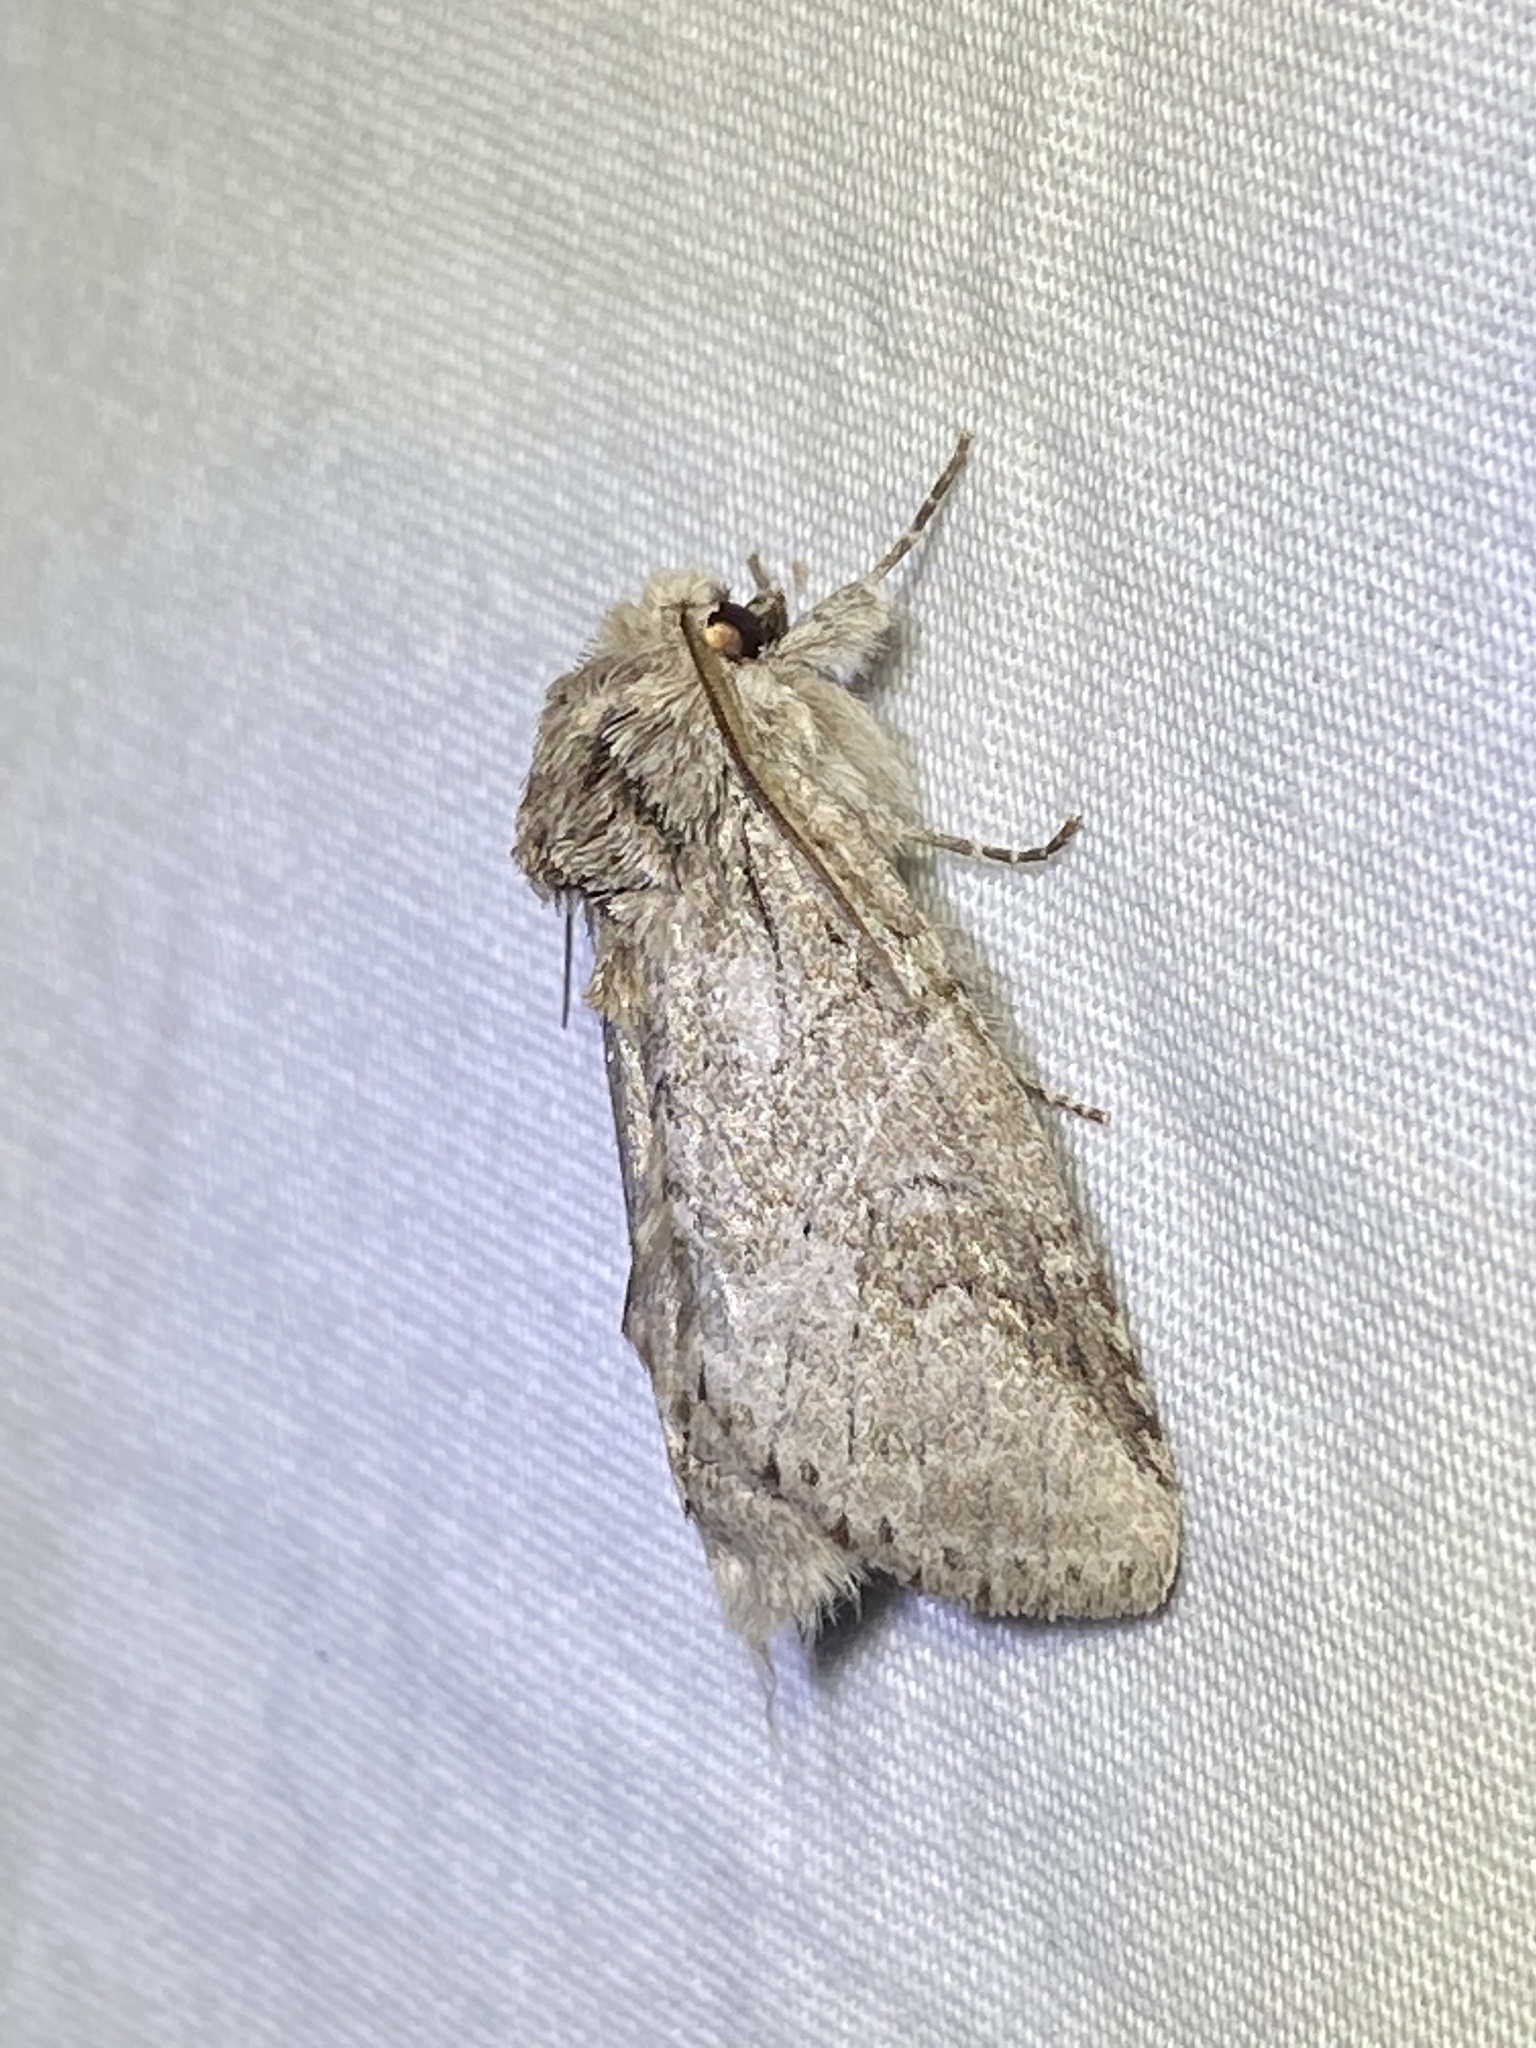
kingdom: Animalia
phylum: Arthropoda
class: Insecta
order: Lepidoptera
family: Notodontidae
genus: Lochmaeus
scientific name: Lochmaeus bilineata
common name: Double-lined prominent
